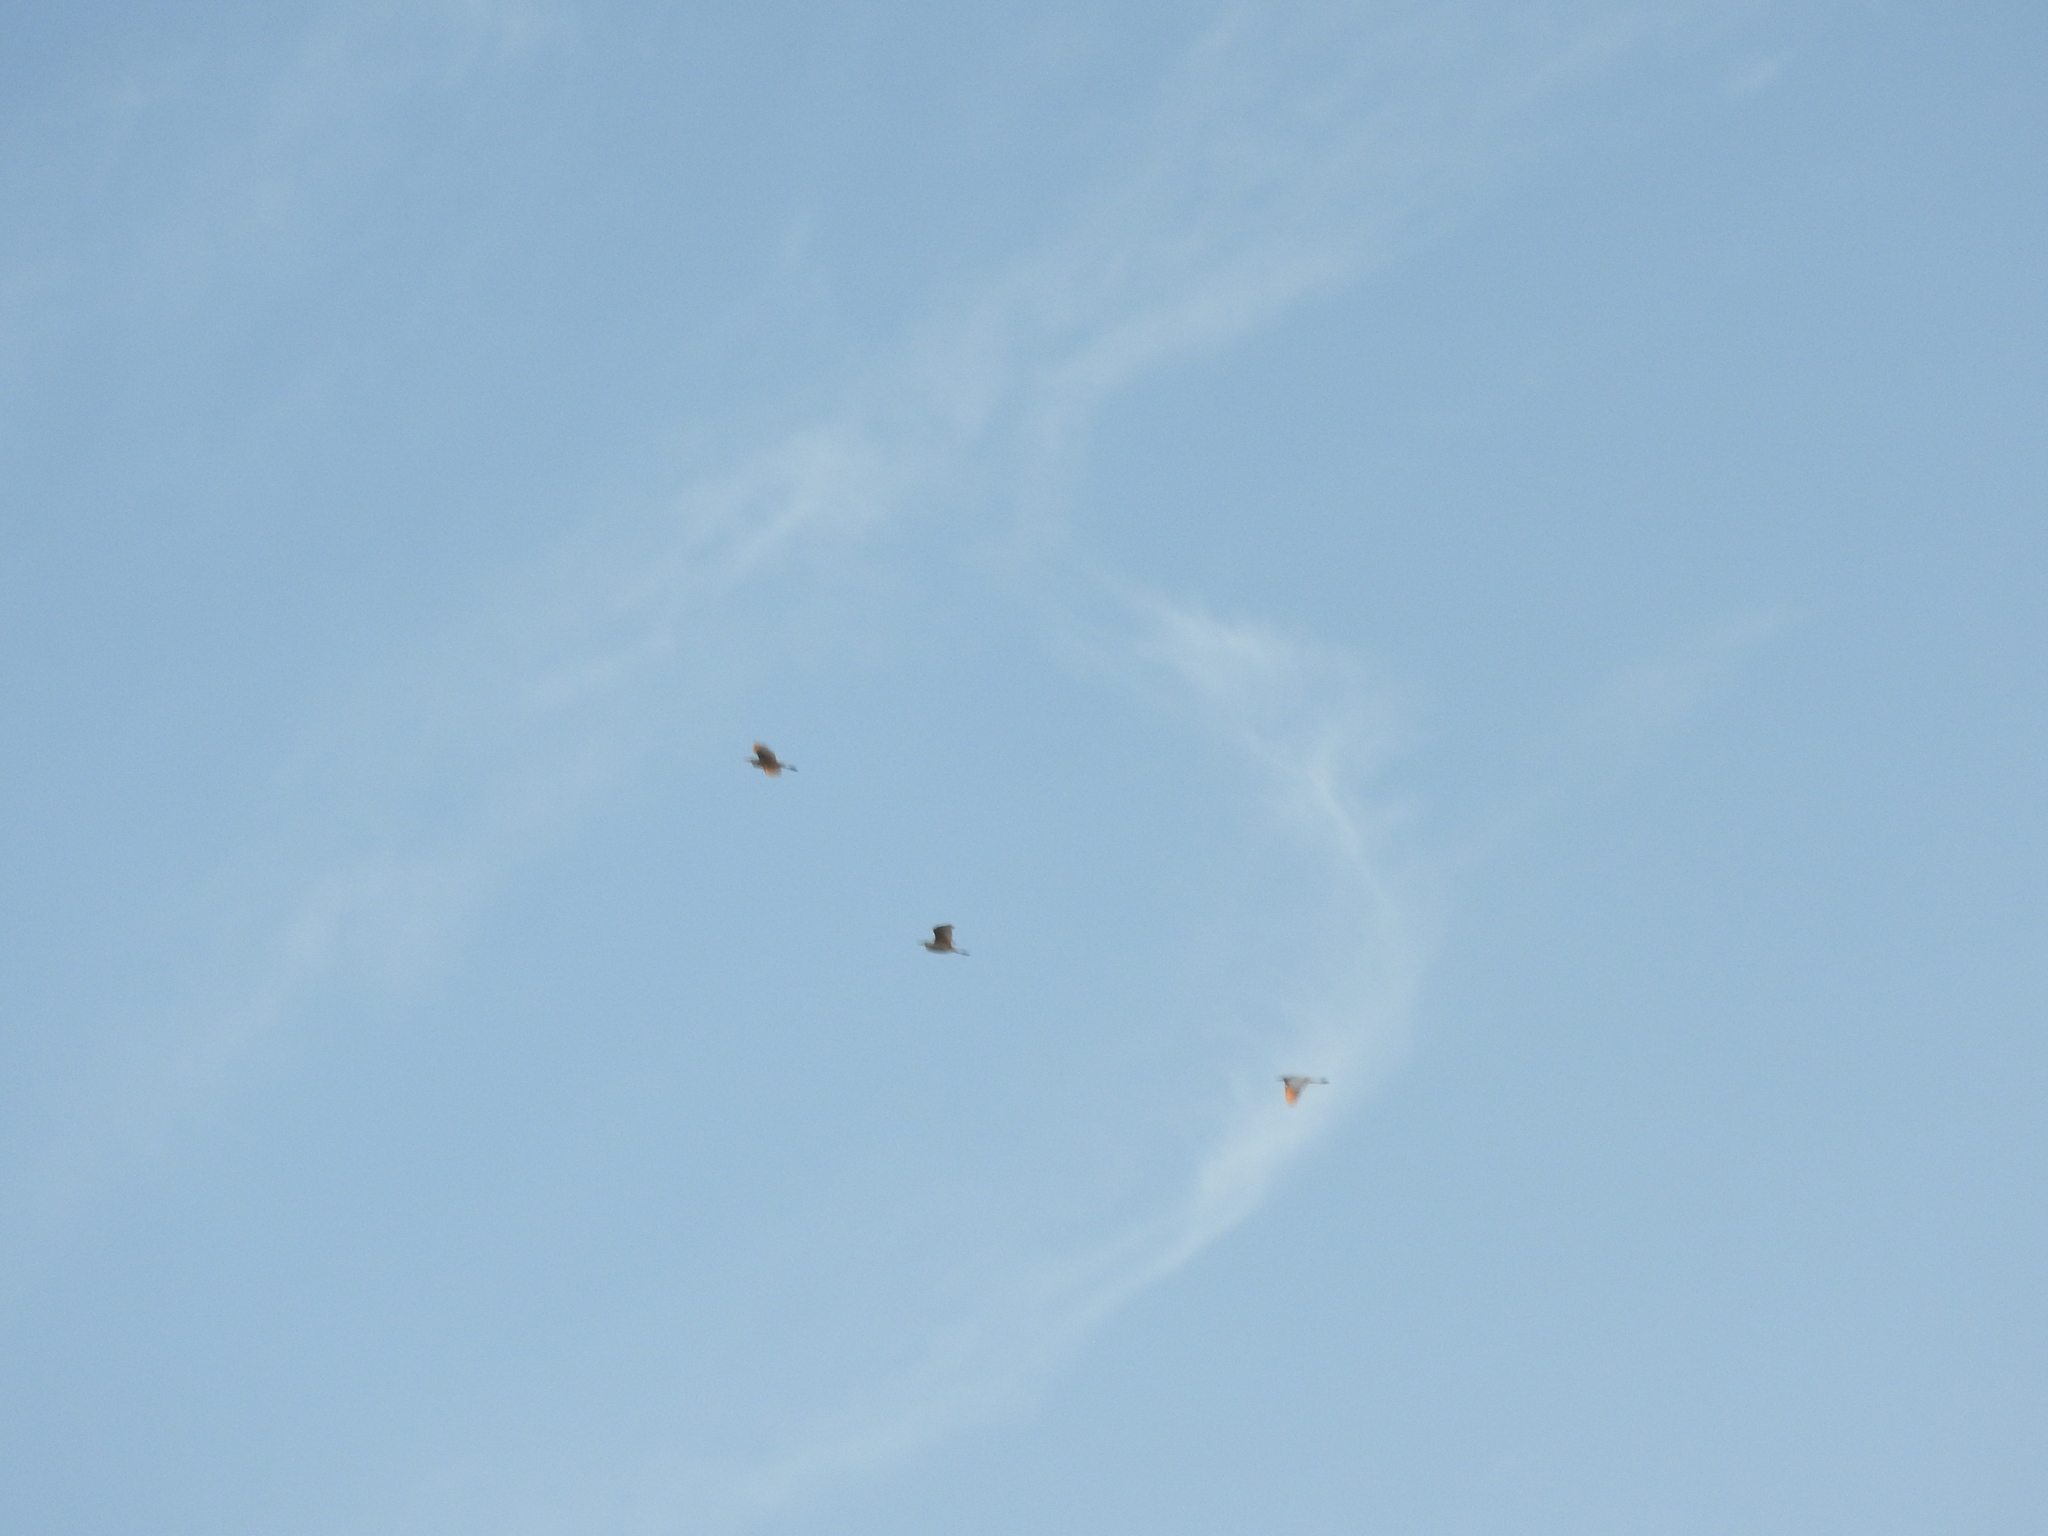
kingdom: Animalia
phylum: Chordata
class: Aves
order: Pelecaniformes
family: Ardeidae
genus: Bubulcus
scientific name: Bubulcus ibis
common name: Cattle egret
